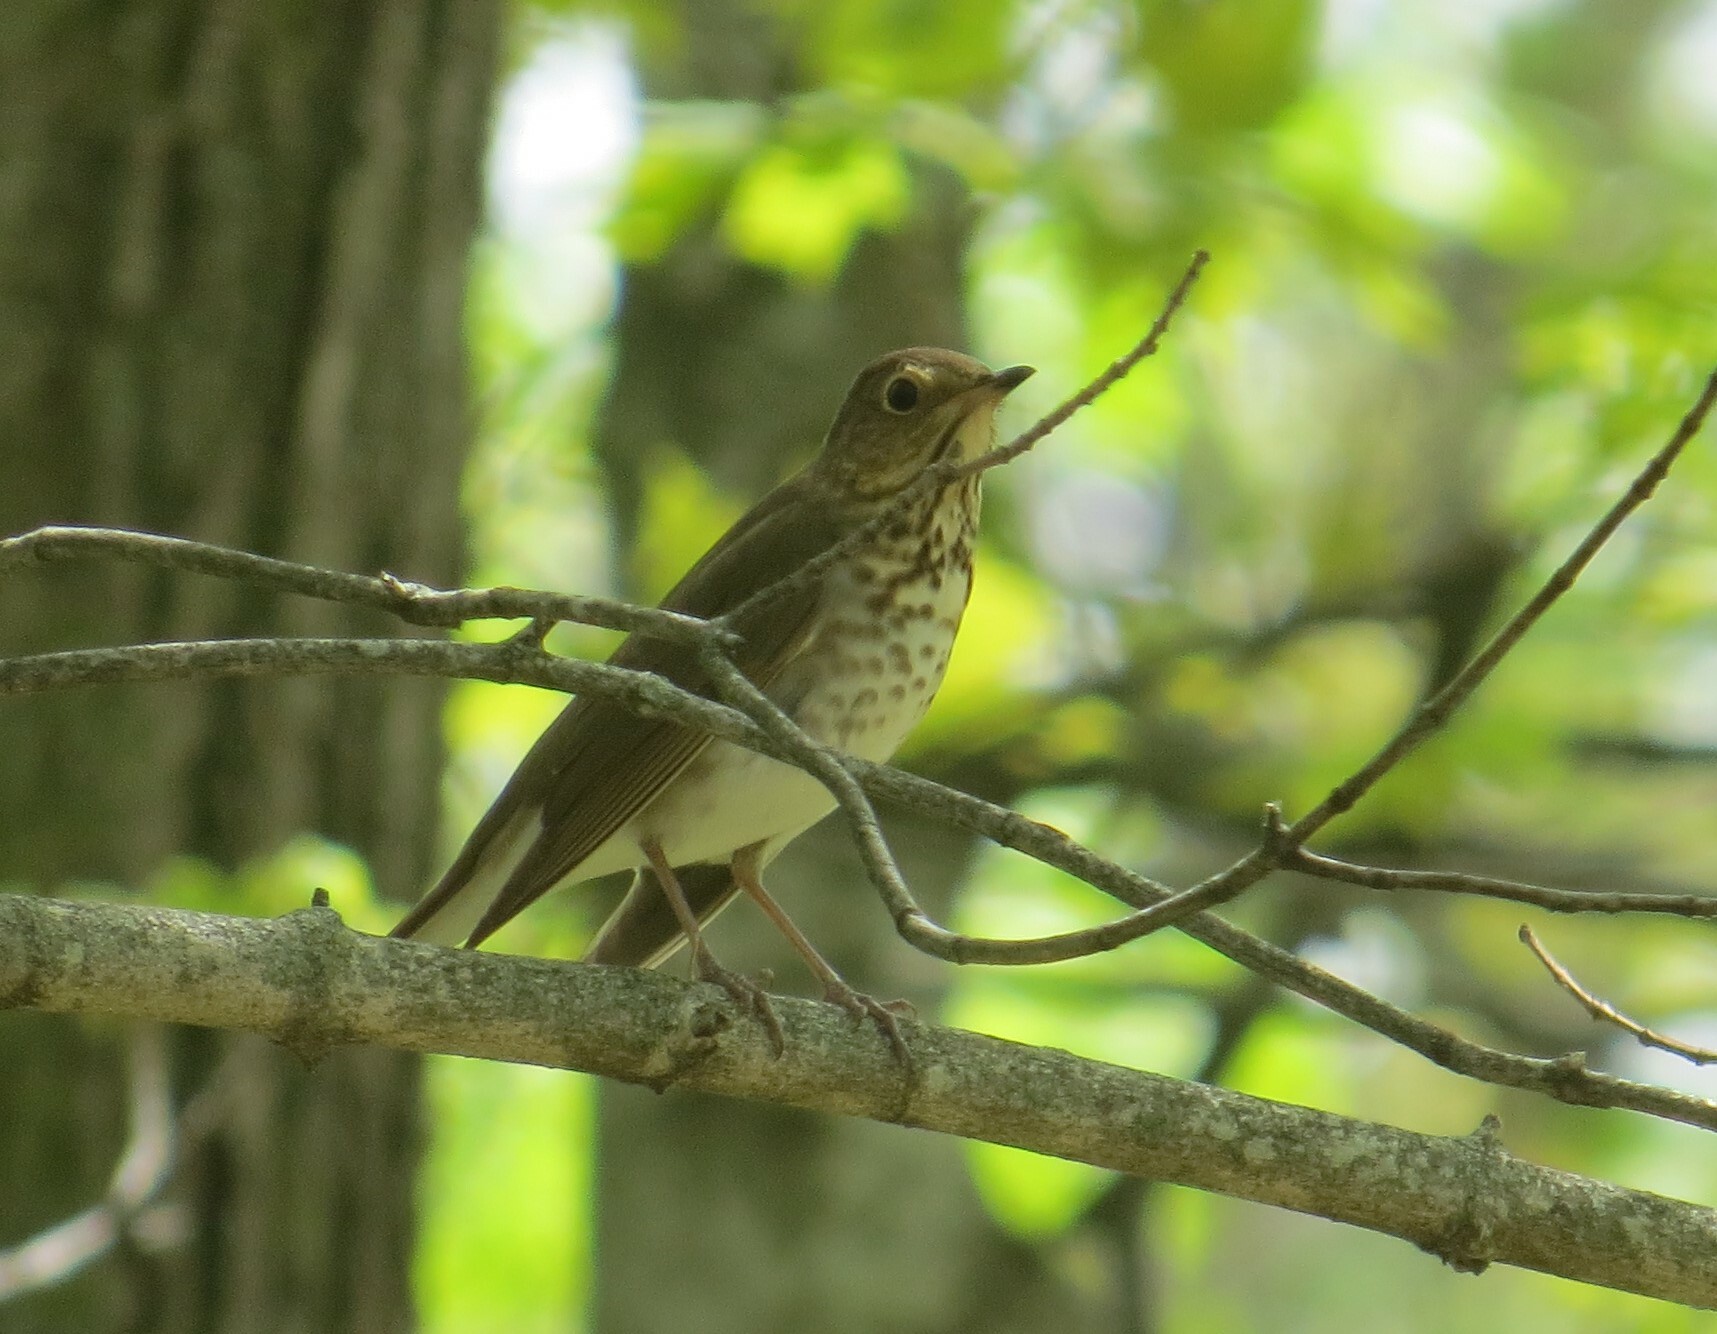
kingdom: Animalia
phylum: Chordata
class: Aves
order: Passeriformes
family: Turdidae
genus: Catharus
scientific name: Catharus ustulatus
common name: Swainson's thrush
